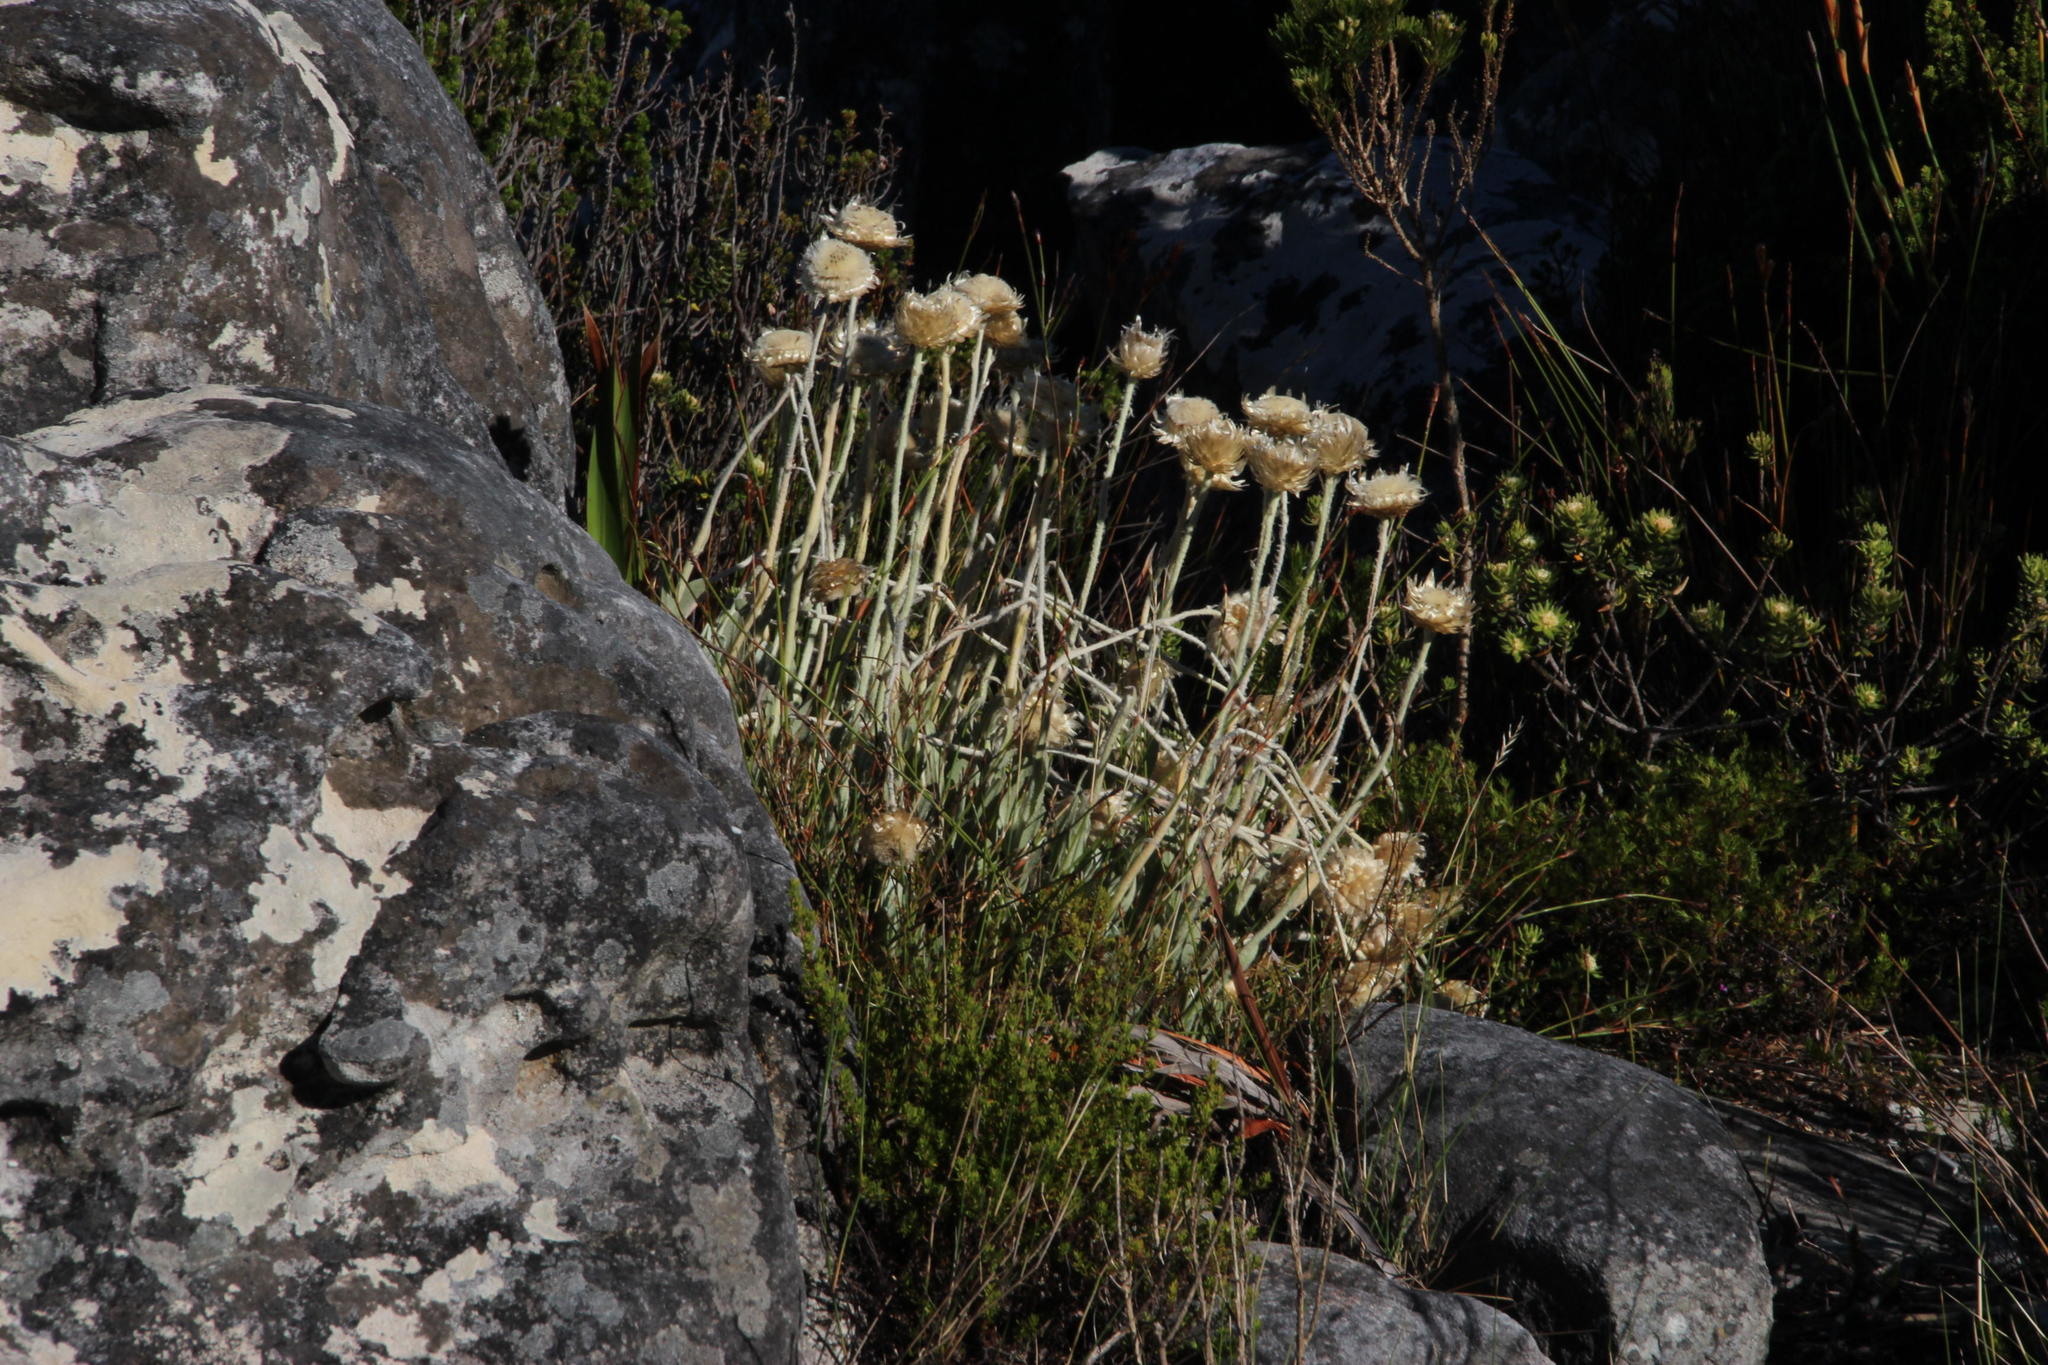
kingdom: Plantae
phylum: Tracheophyta
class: Magnoliopsida
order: Asterales
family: Asteraceae
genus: Syncarpha
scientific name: Syncarpha speciosissima
